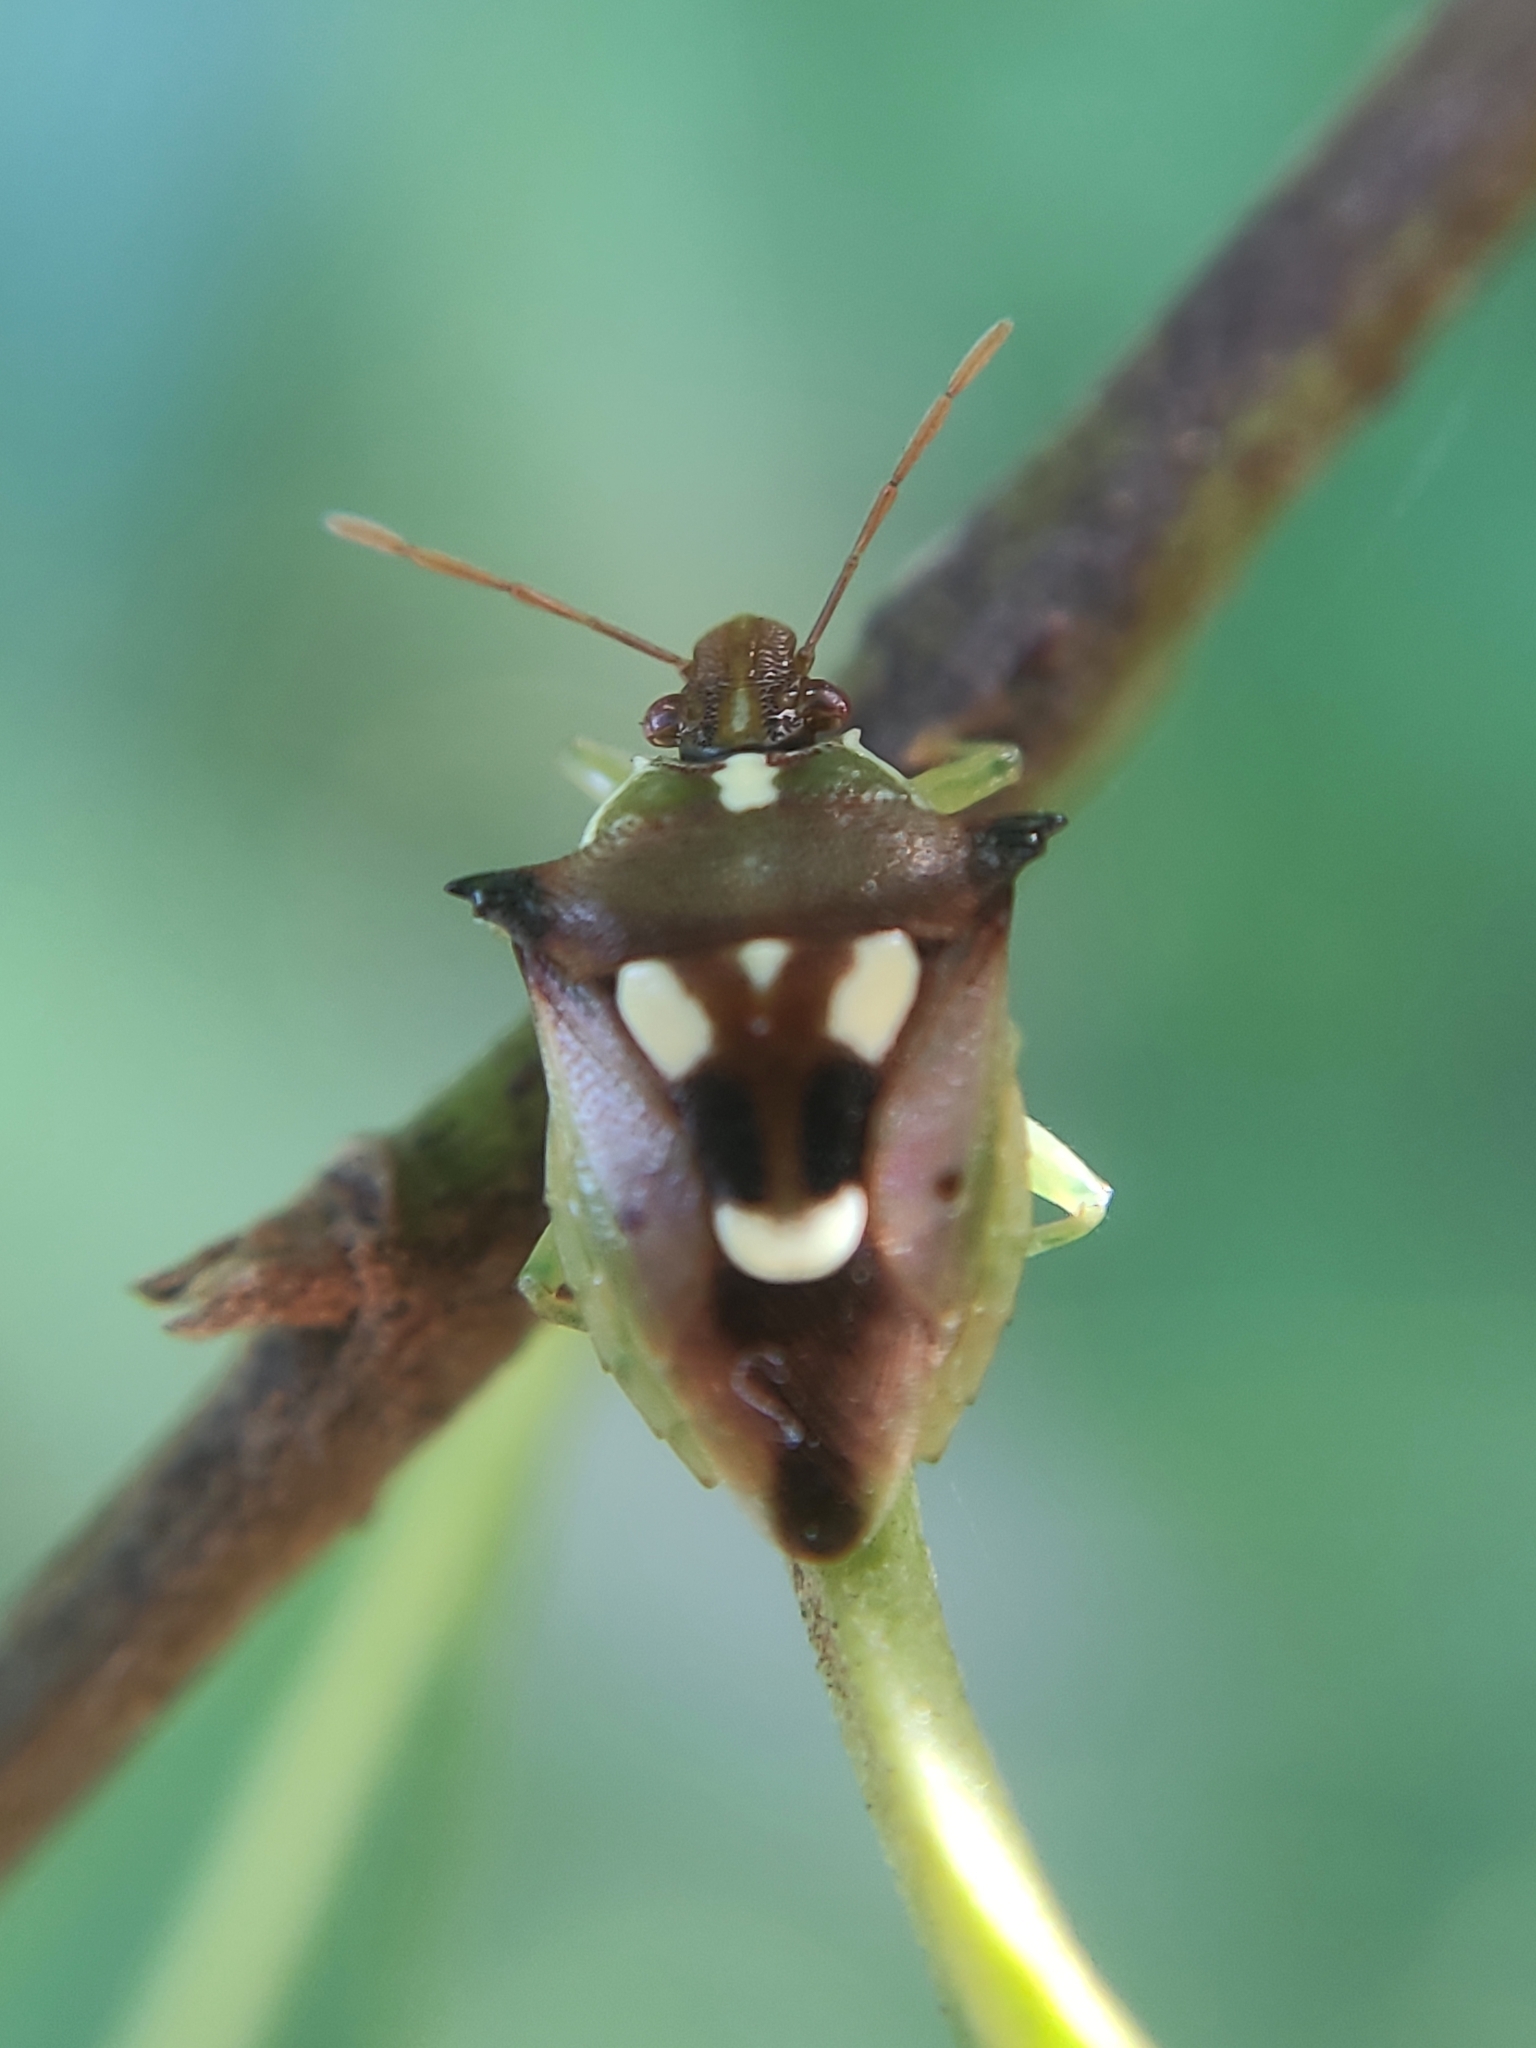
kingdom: Animalia
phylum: Arthropoda
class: Insecta
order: Hemiptera
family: Pentatomidae
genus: Tylospilus
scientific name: Tylospilus cloelia
